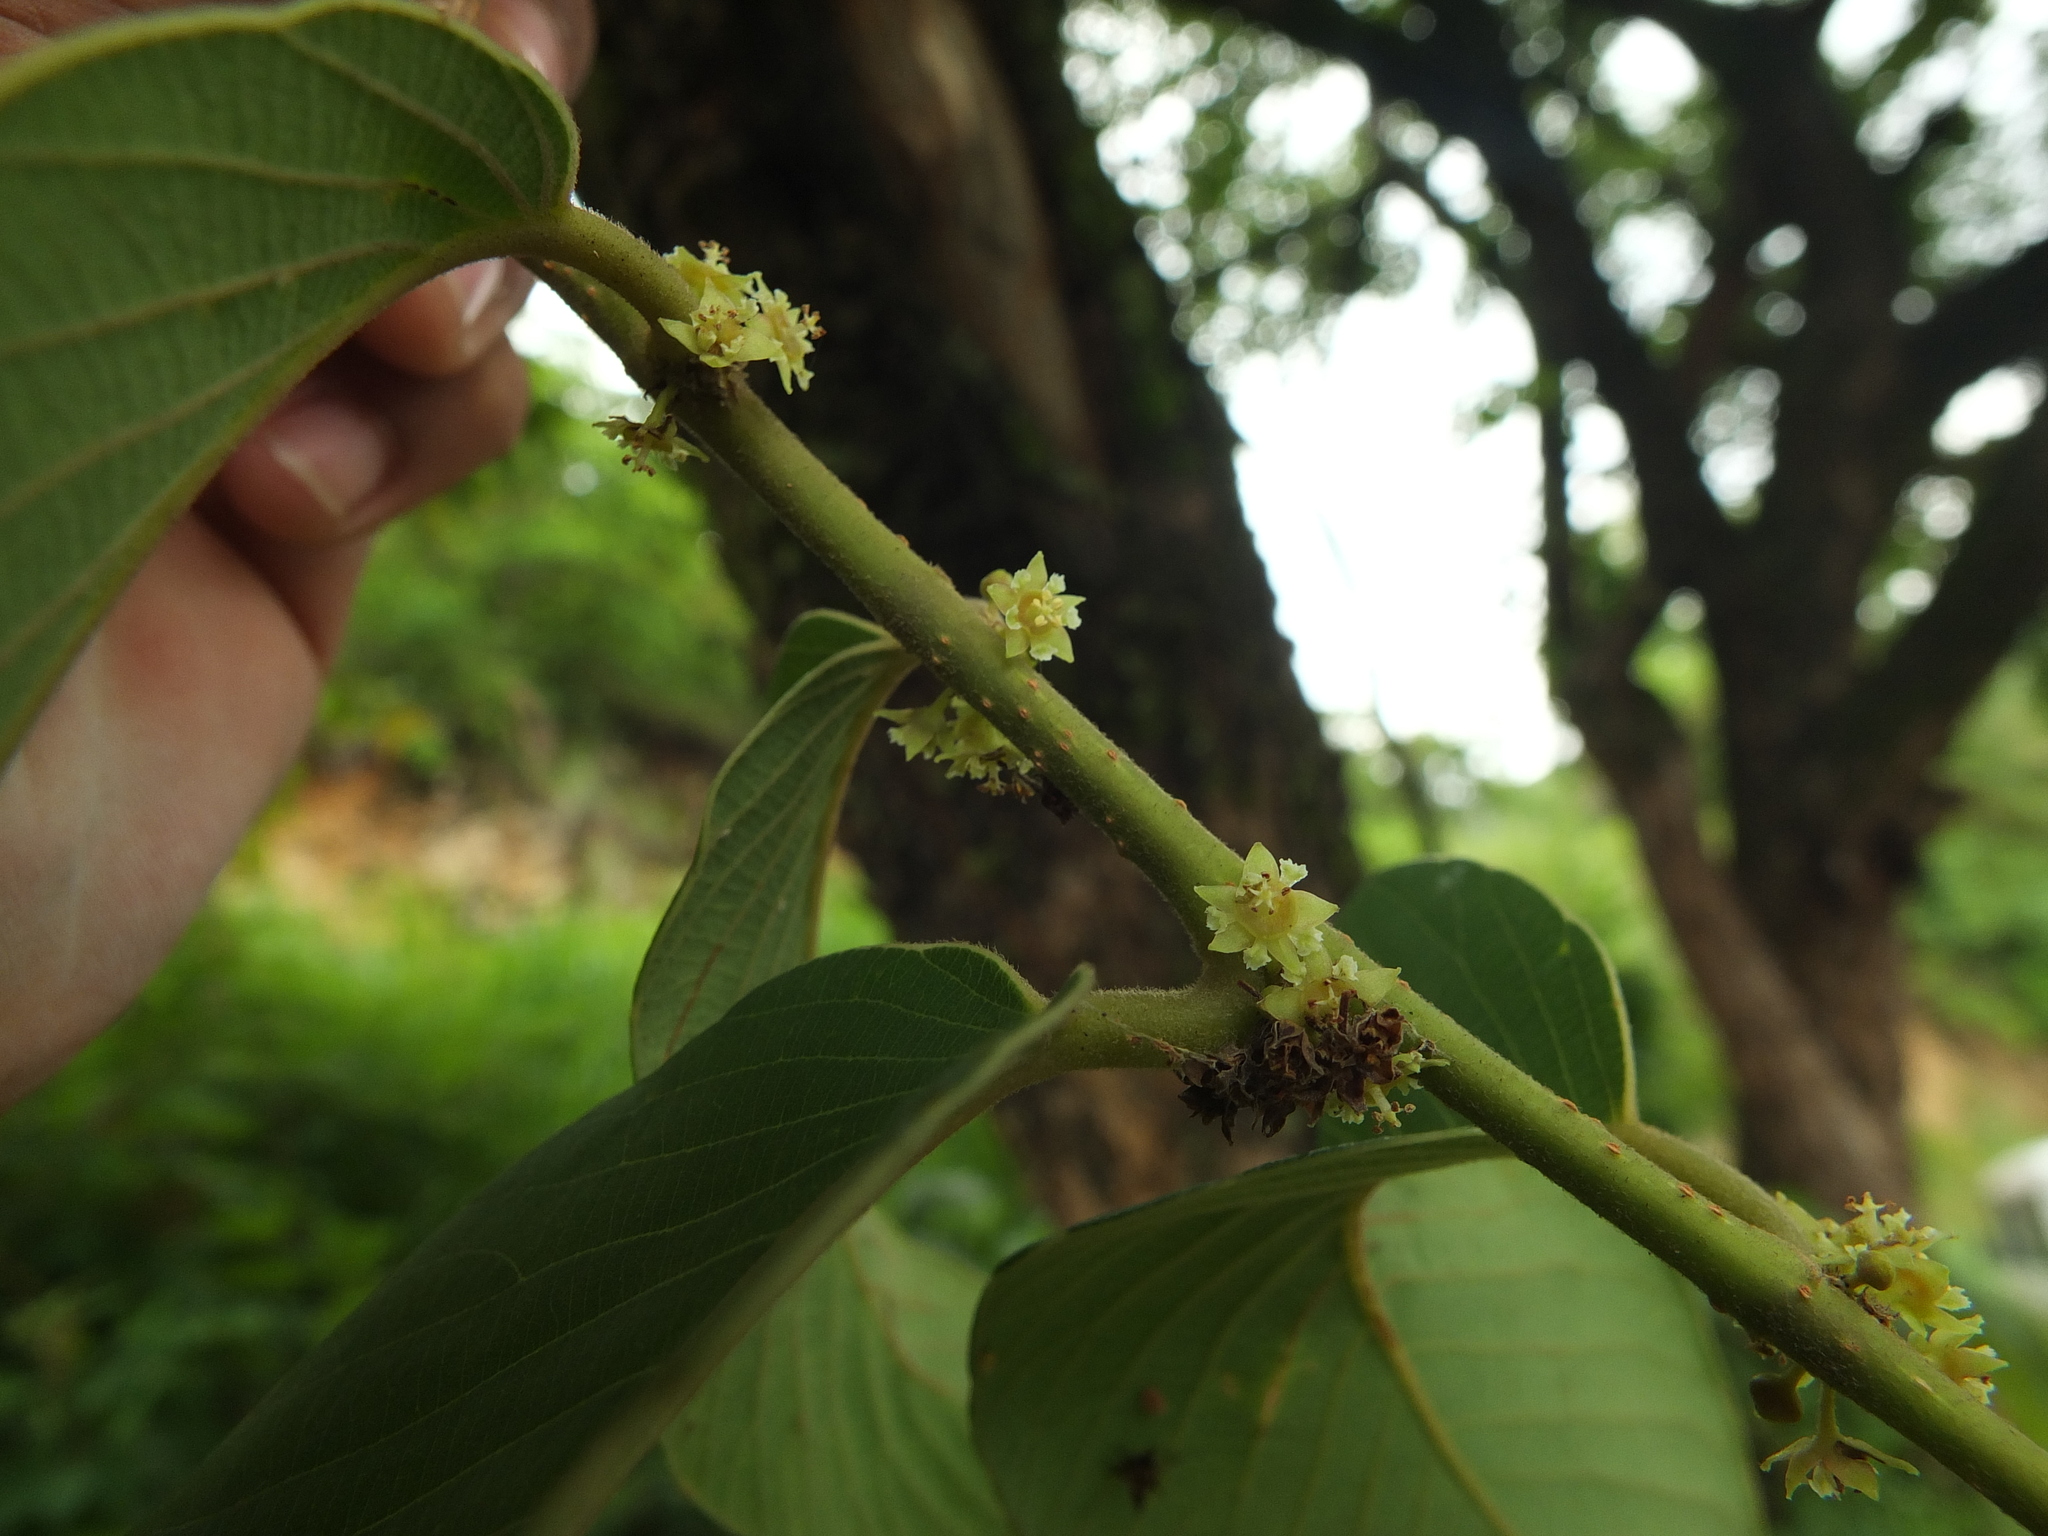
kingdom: Plantae
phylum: Tracheophyta
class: Magnoliopsida
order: Malpighiales
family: Phyllanthaceae
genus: Bridelia
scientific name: Bridelia retusa
